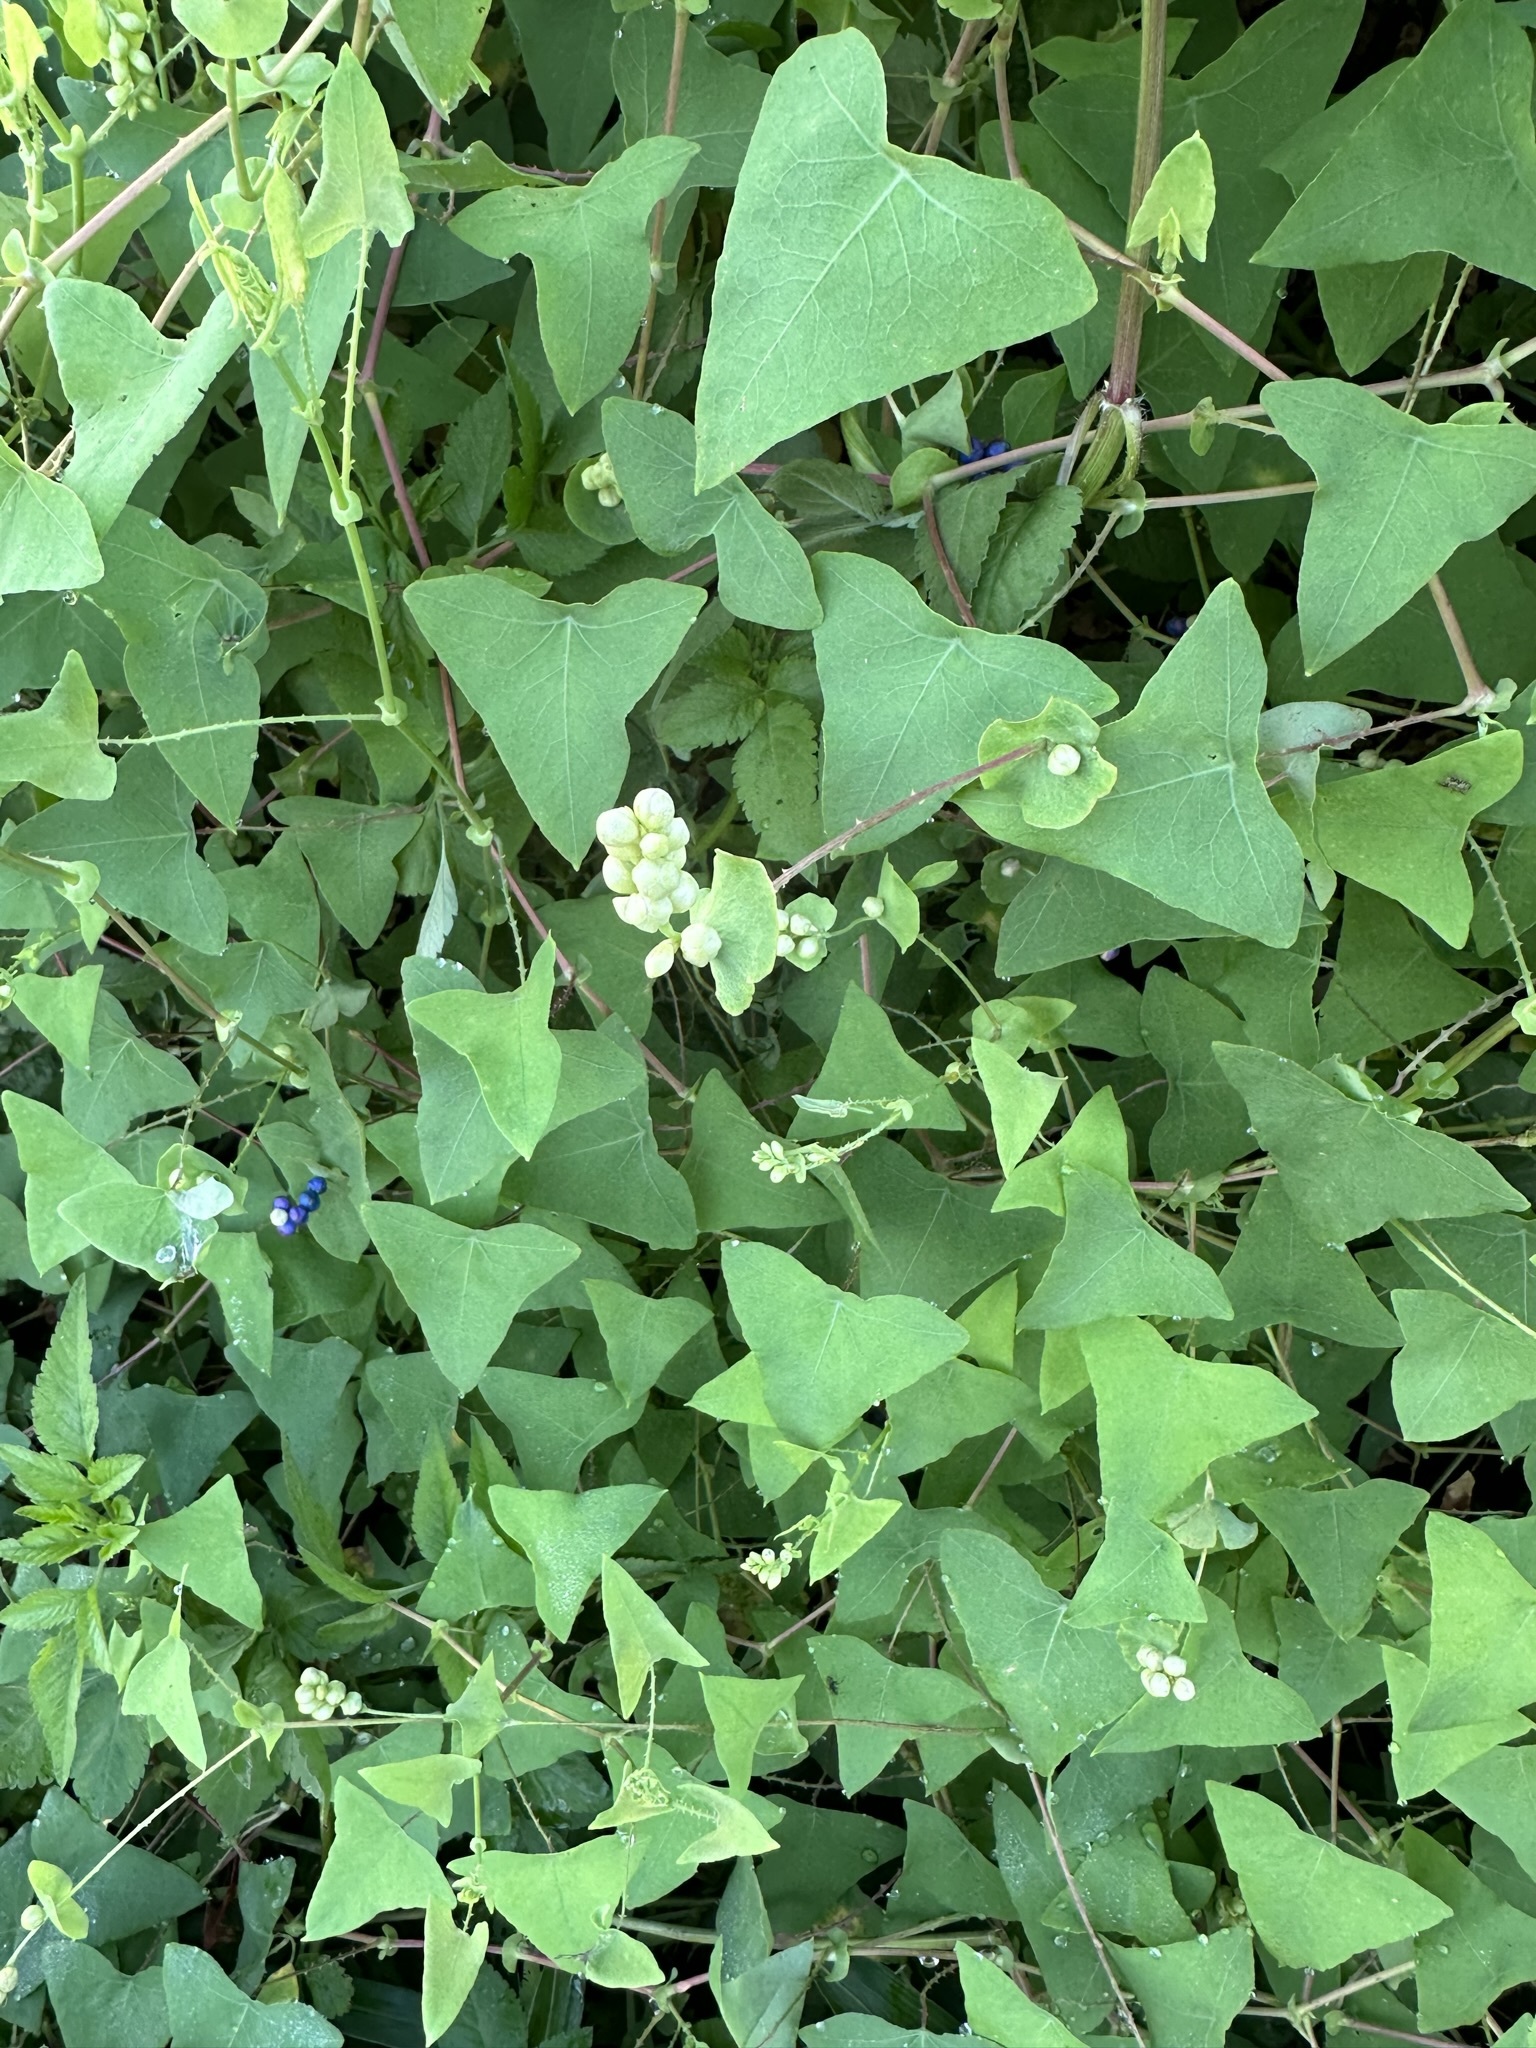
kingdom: Plantae
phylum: Tracheophyta
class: Magnoliopsida
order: Caryophyllales
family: Polygonaceae
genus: Persicaria
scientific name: Persicaria perfoliata
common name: Asiatic tearthumb
